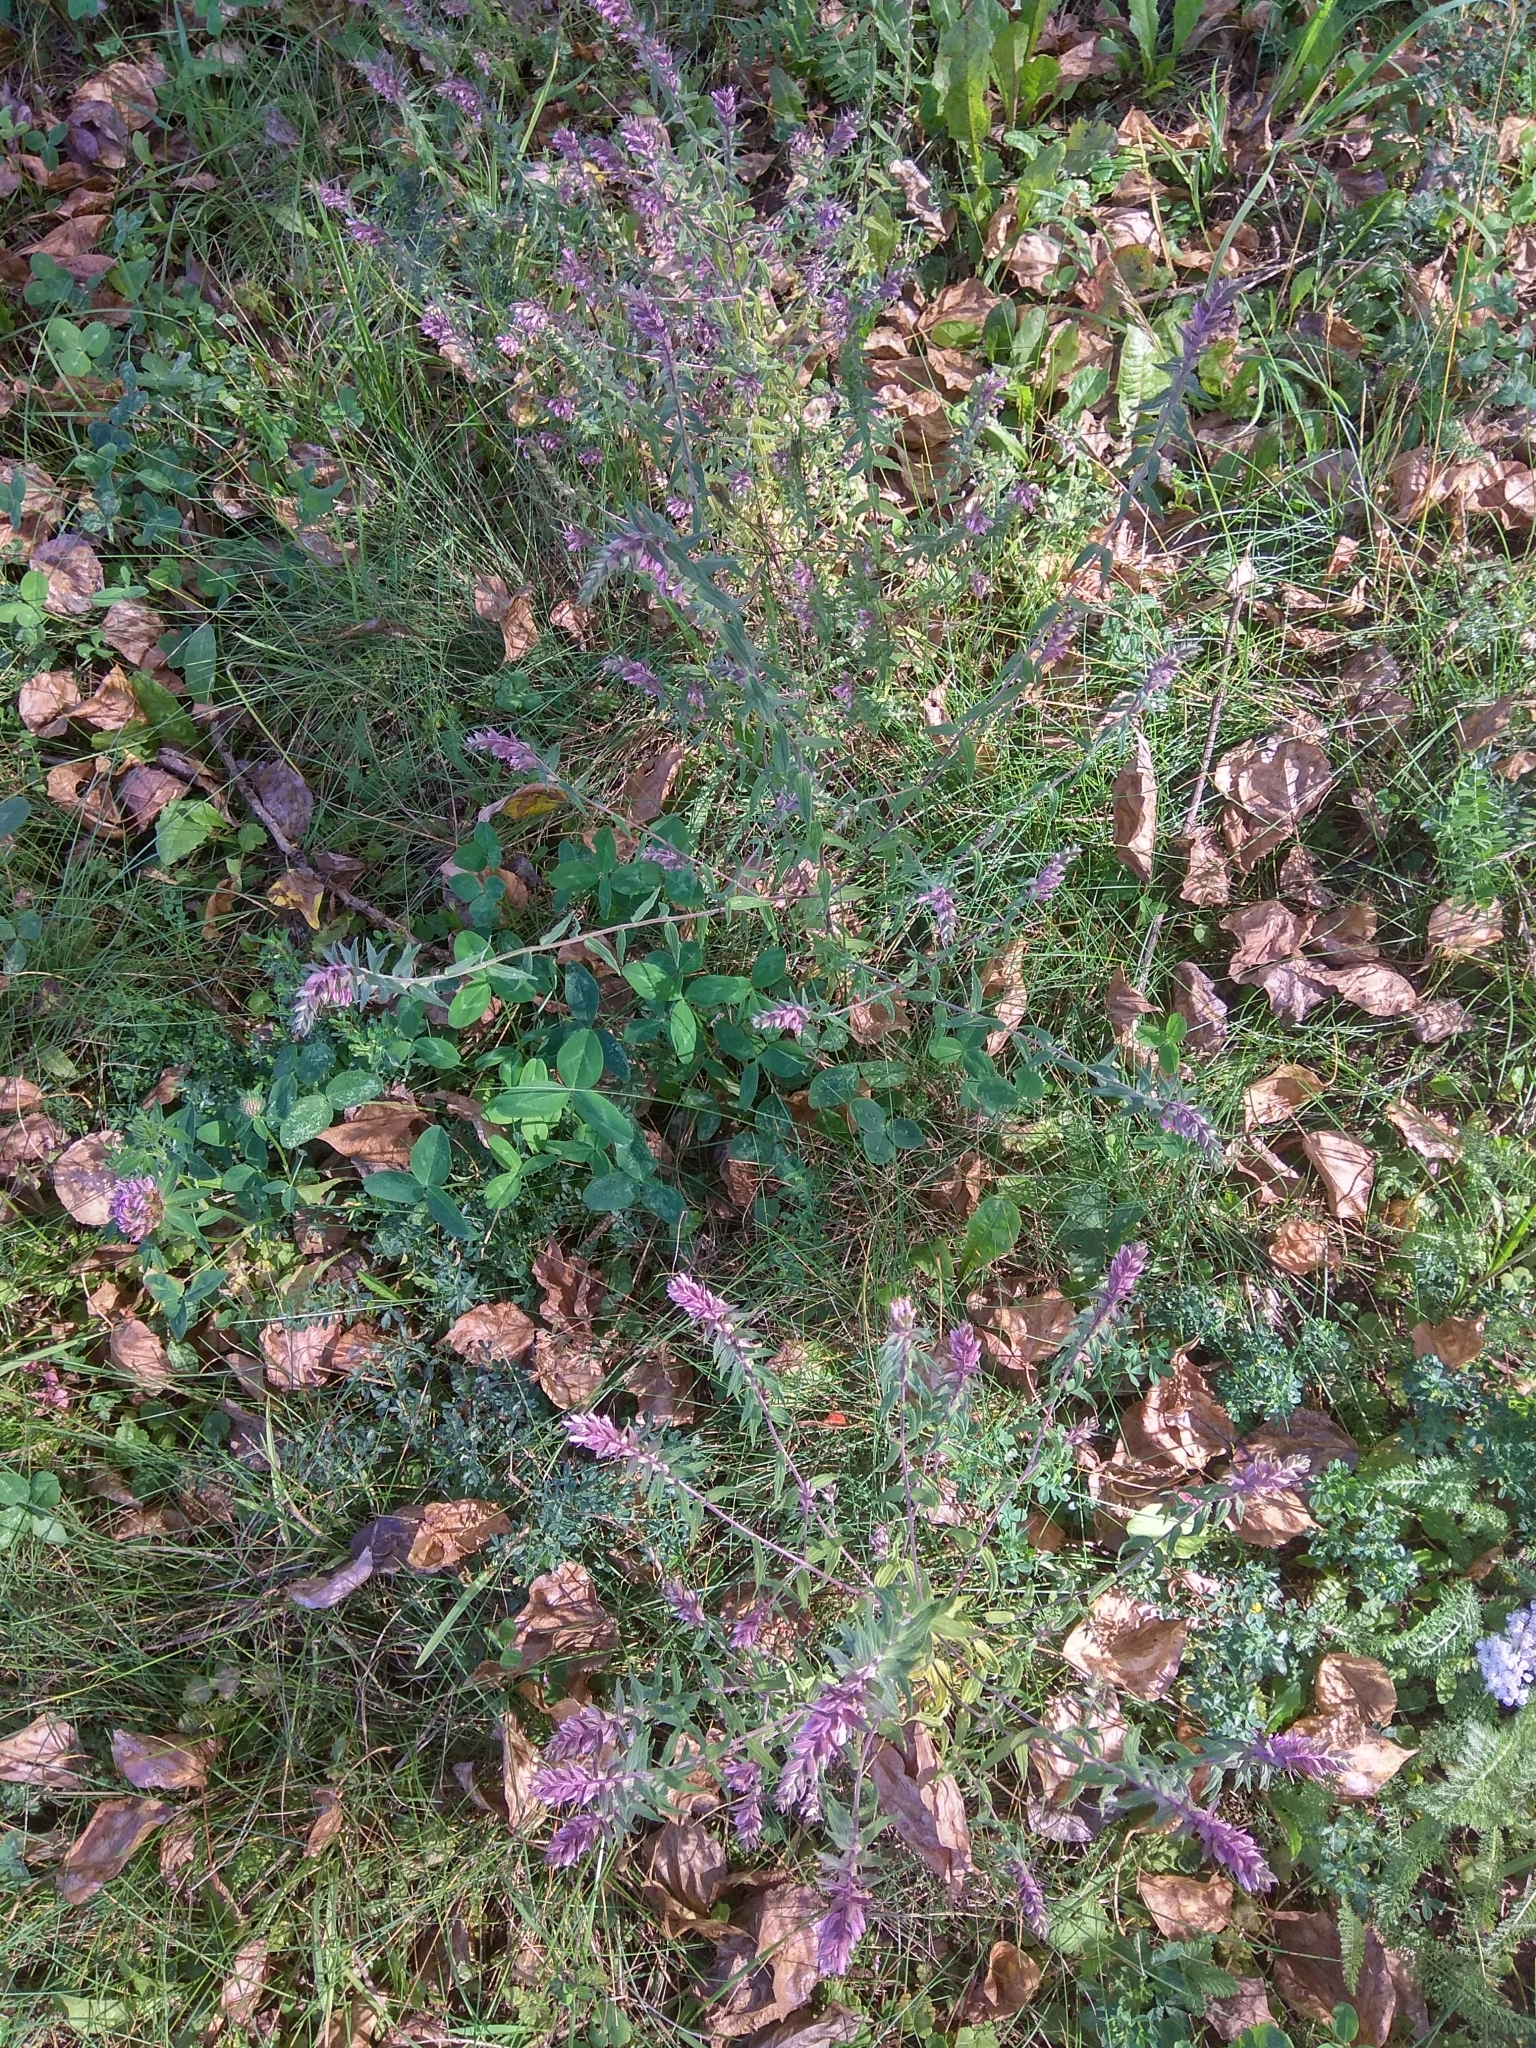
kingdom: Plantae
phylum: Tracheophyta
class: Magnoliopsida
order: Lamiales
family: Orobanchaceae
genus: Odontites
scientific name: Odontites vulgaris
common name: Broomrape
